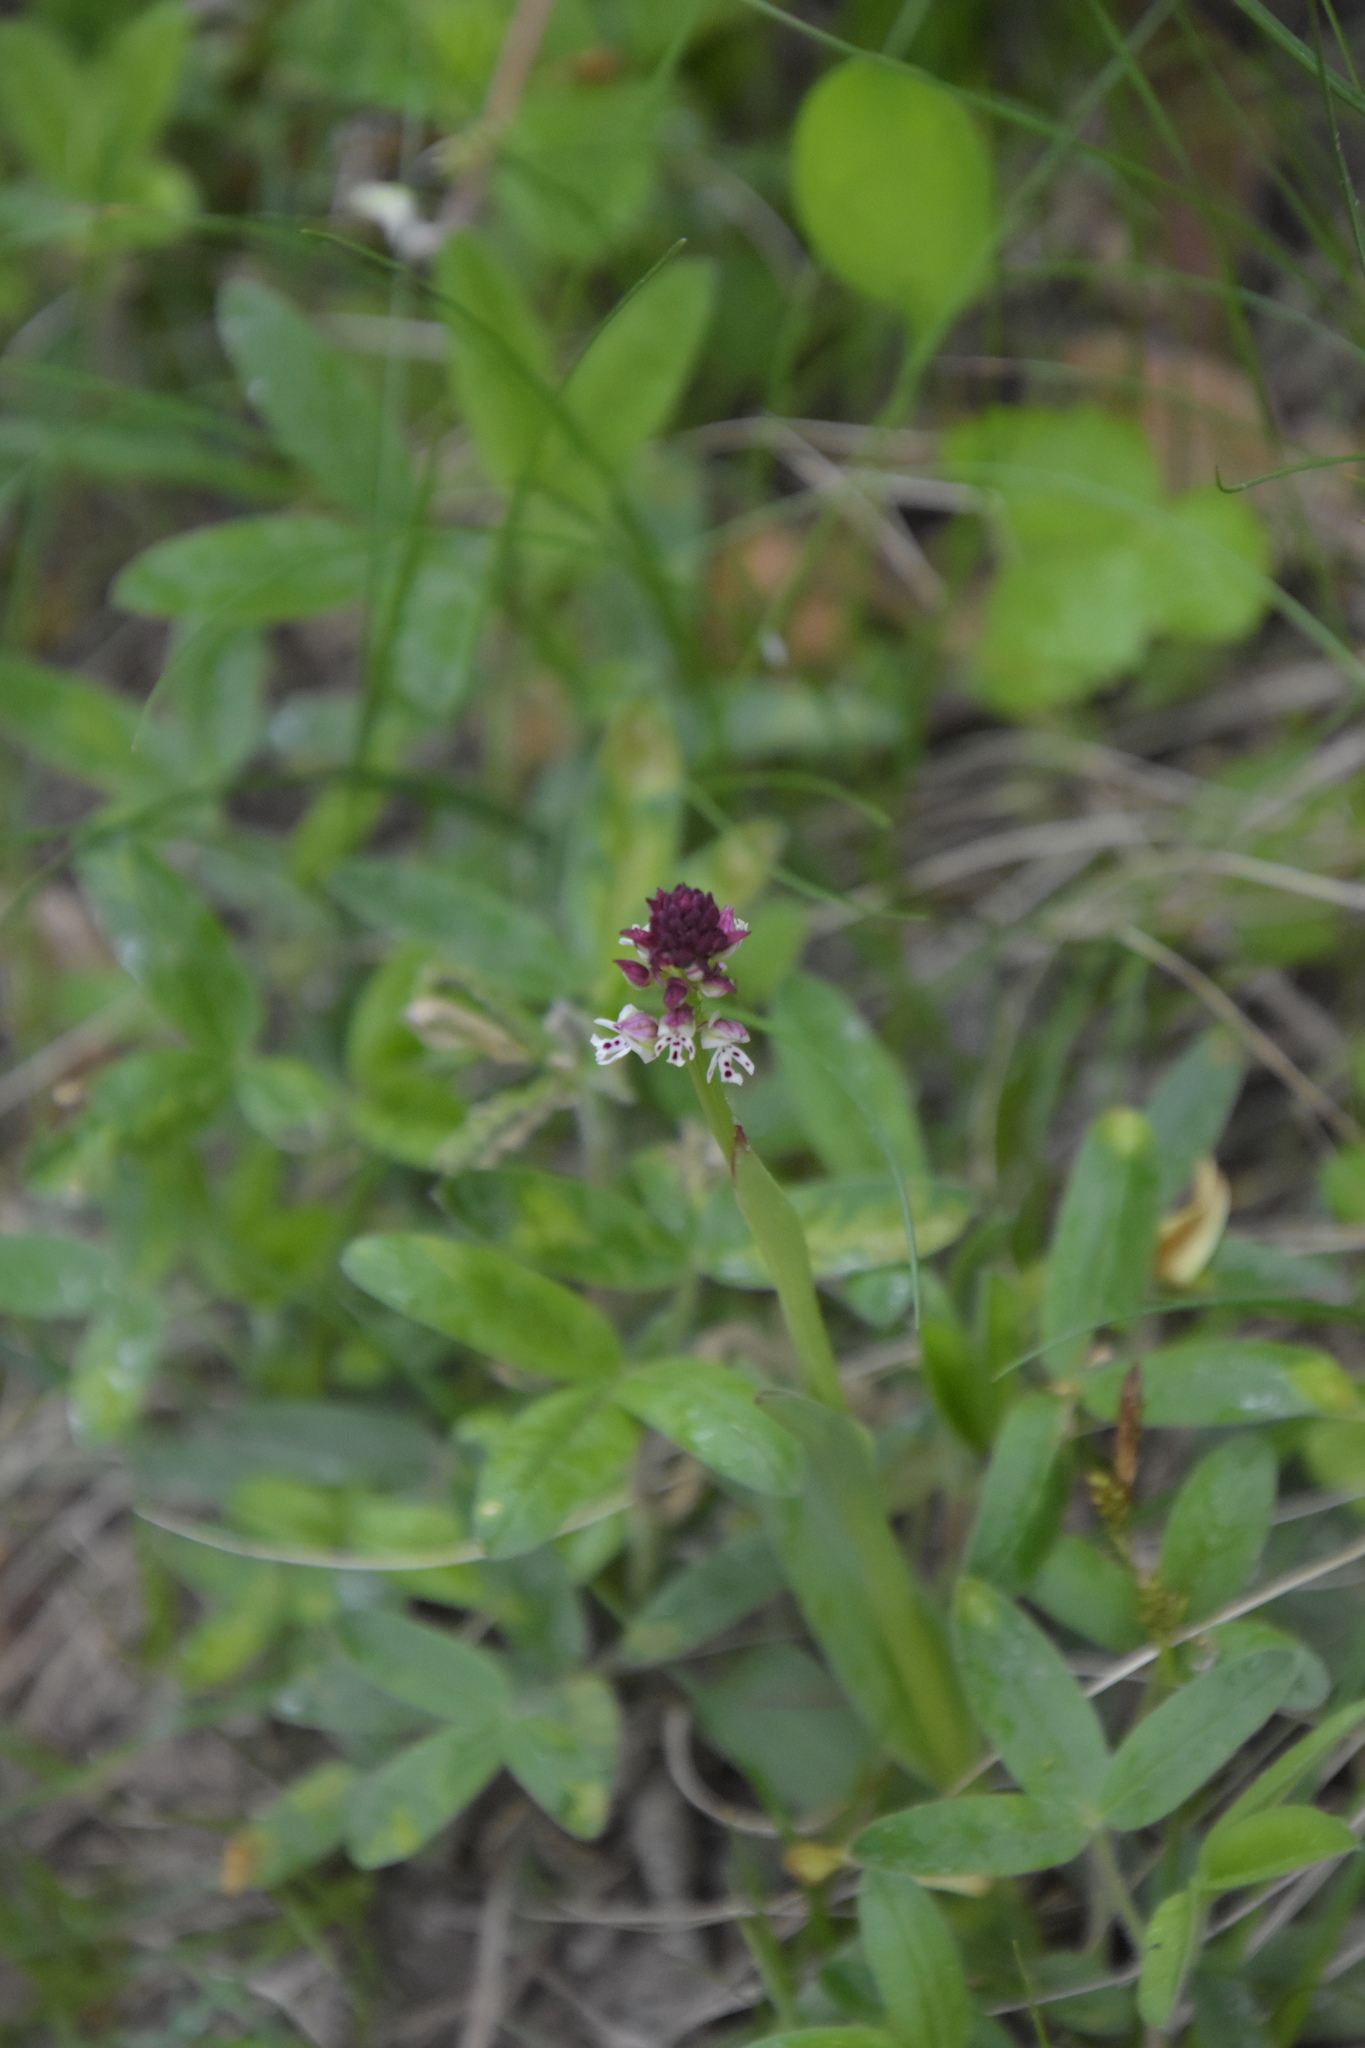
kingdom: Plantae
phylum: Tracheophyta
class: Liliopsida
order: Asparagales
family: Orchidaceae
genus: Neotinea
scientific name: Neotinea ustulata
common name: Burnt orchid
